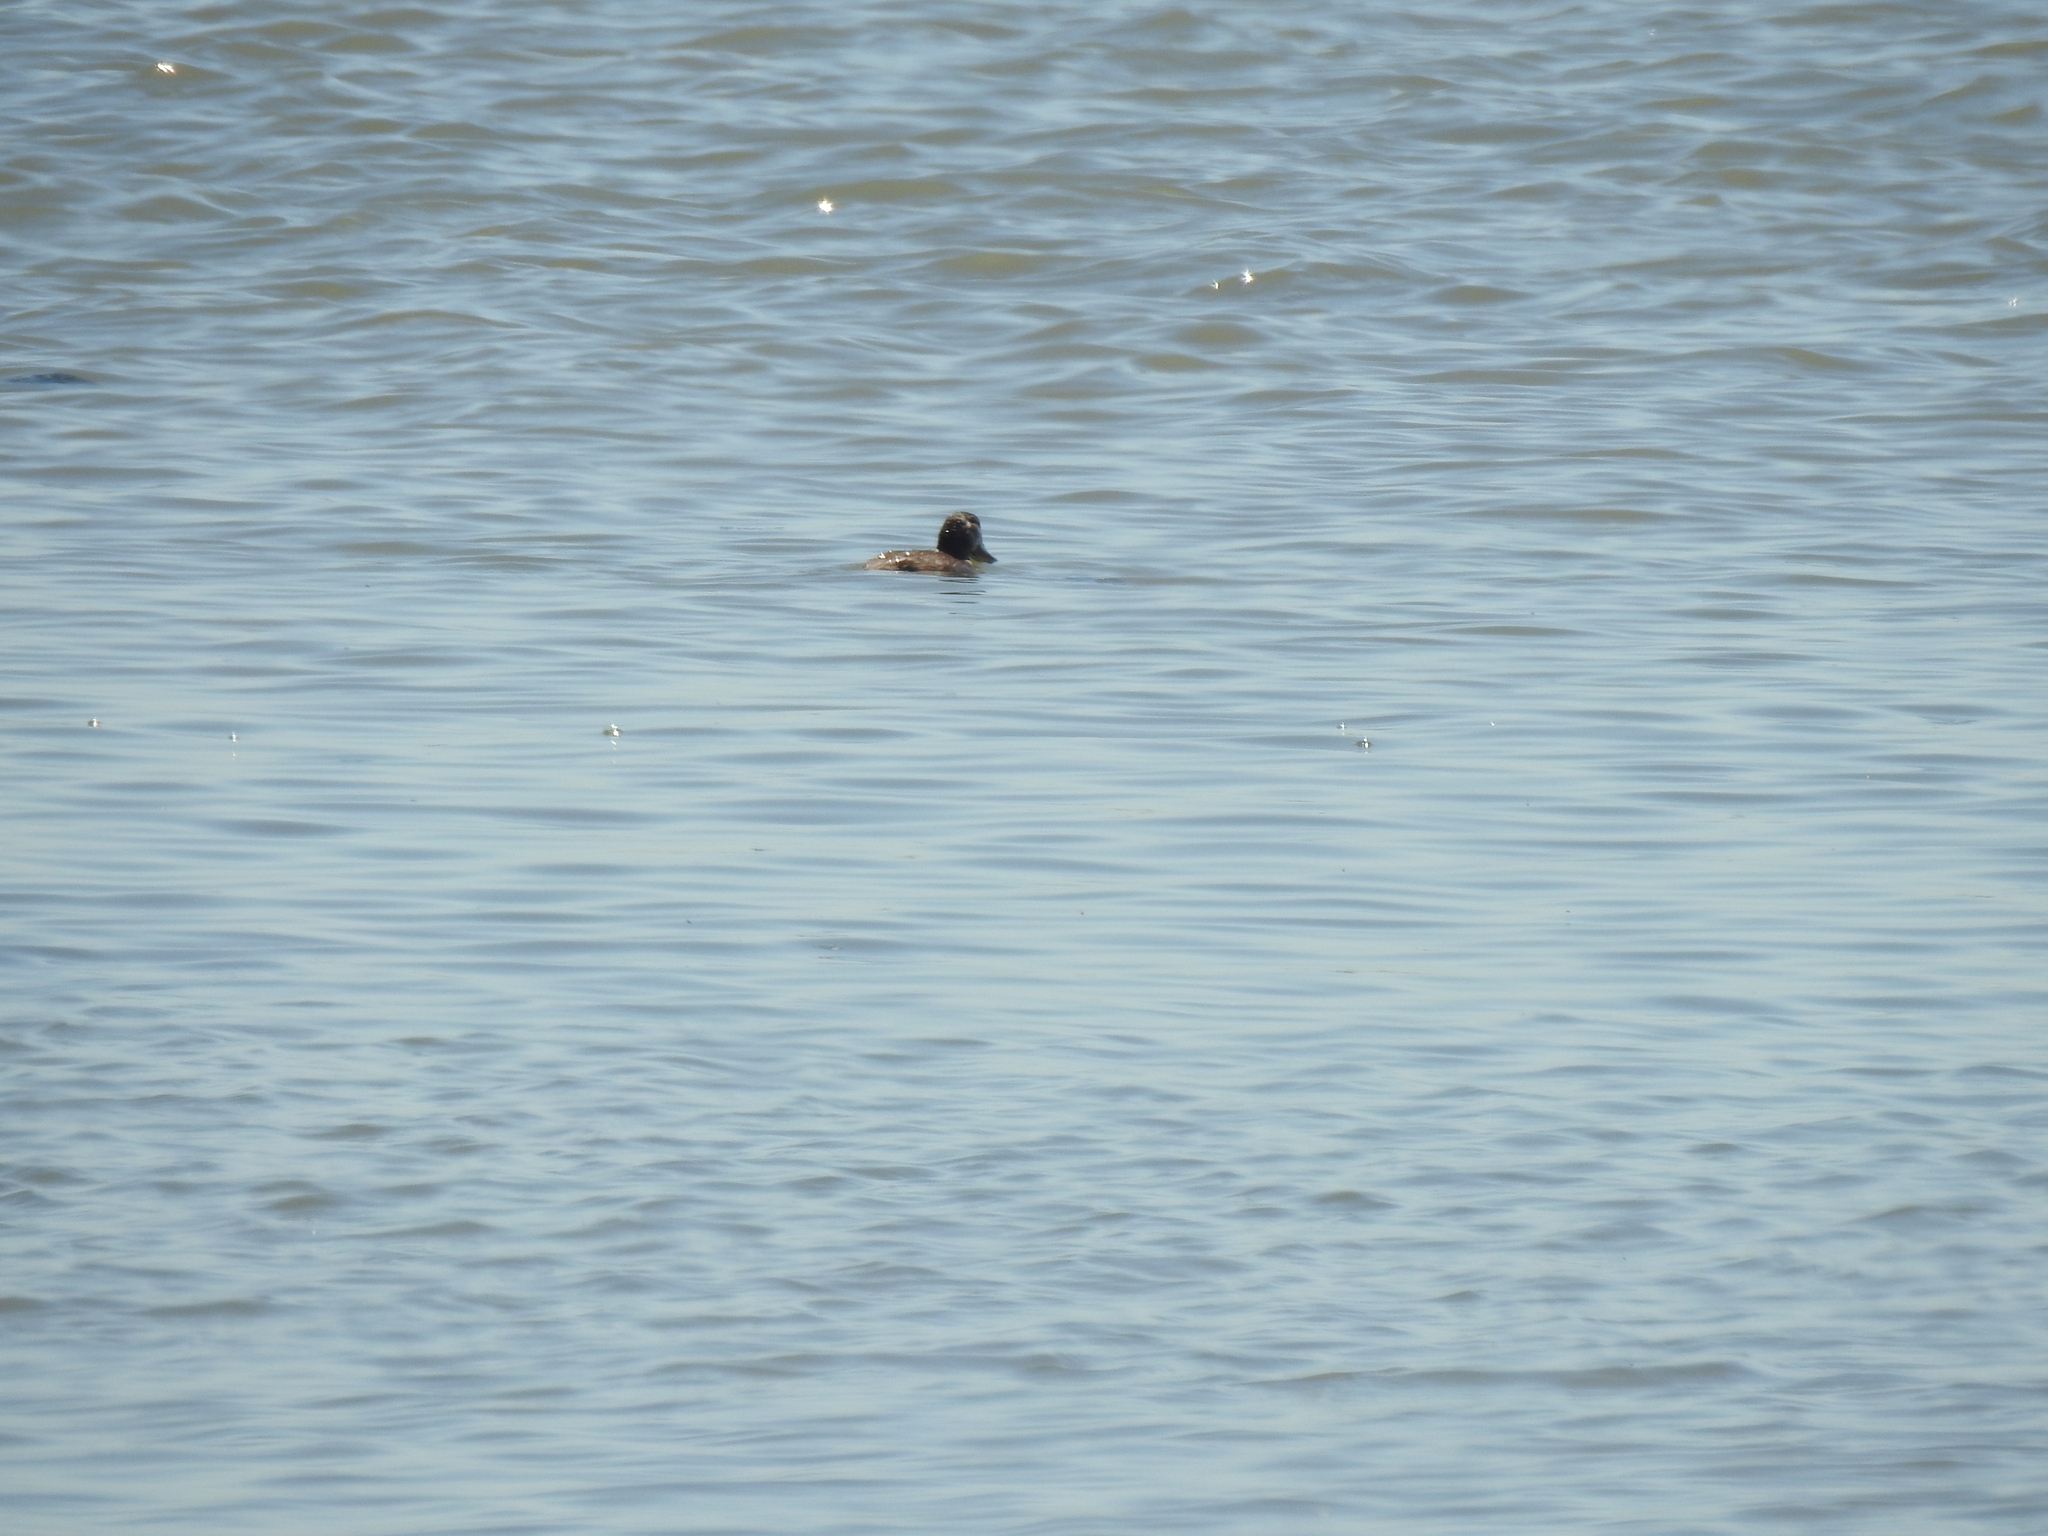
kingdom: Animalia
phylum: Chordata
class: Aves
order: Anseriformes
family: Anatidae
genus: Oxyura
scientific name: Oxyura jamaicensis
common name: Ruddy duck
